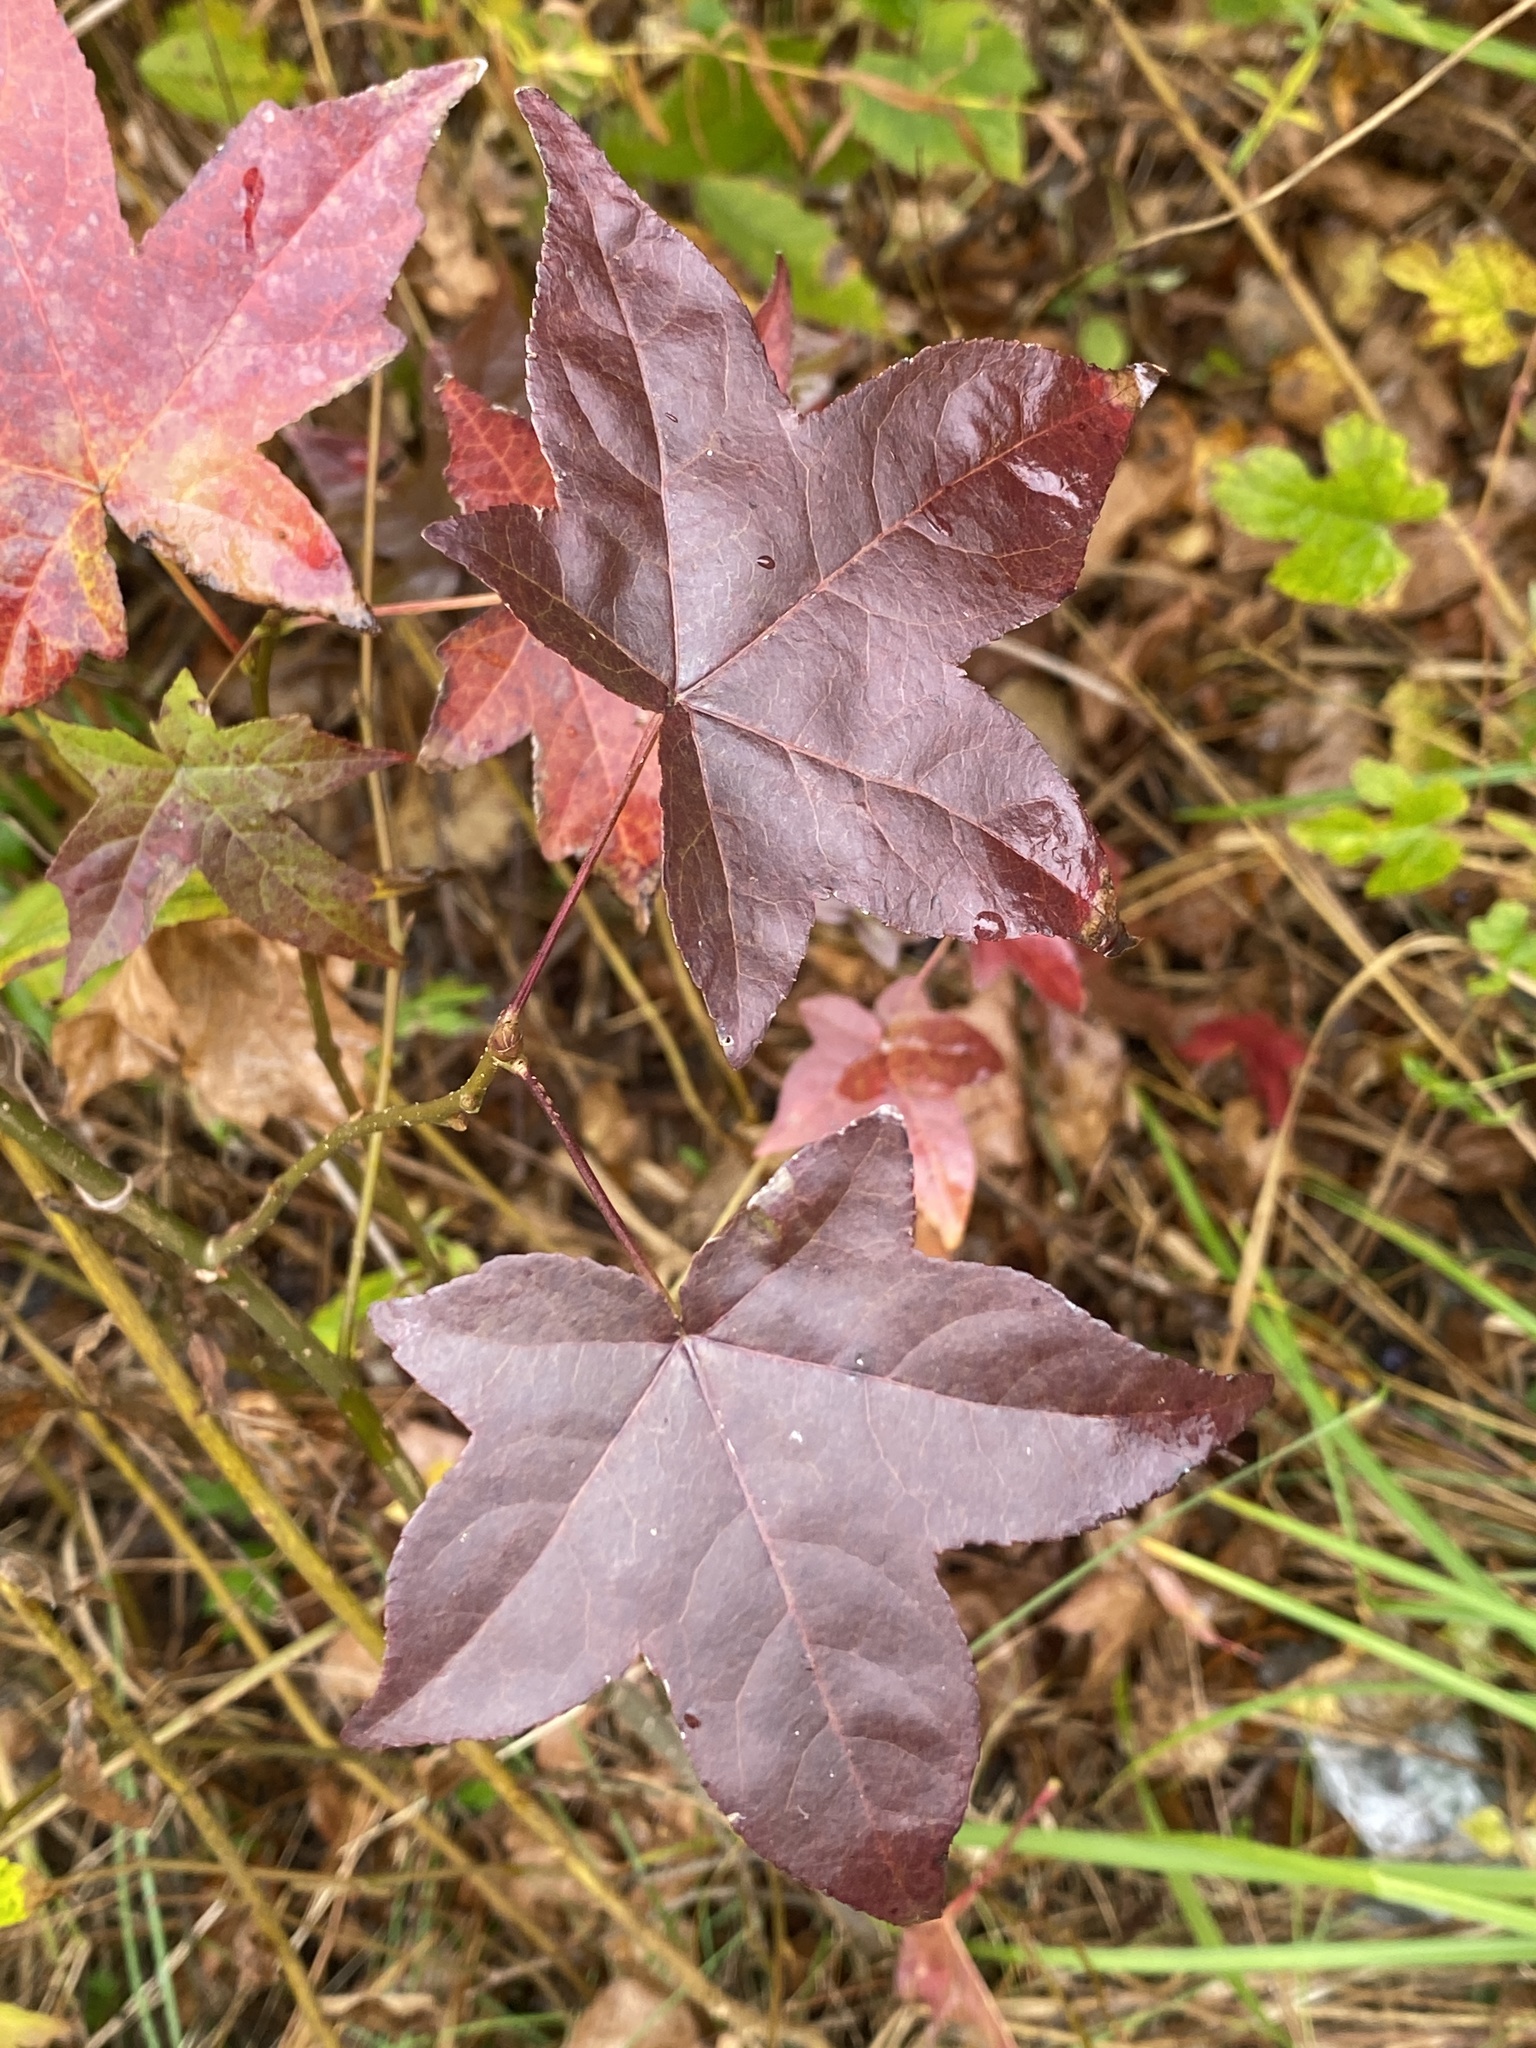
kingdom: Plantae
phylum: Tracheophyta
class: Magnoliopsida
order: Saxifragales
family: Altingiaceae
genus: Liquidambar
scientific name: Liquidambar styraciflua
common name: Sweet gum
